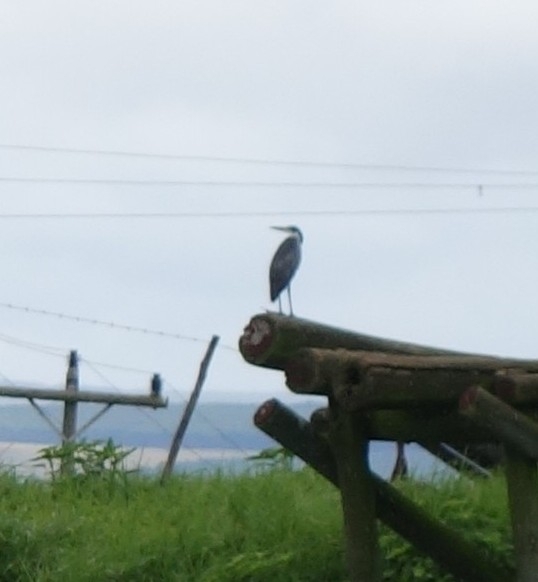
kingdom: Animalia
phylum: Chordata
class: Aves
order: Pelecaniformes
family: Ardeidae
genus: Ardea
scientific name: Ardea melanocephala
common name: Black-headed heron
